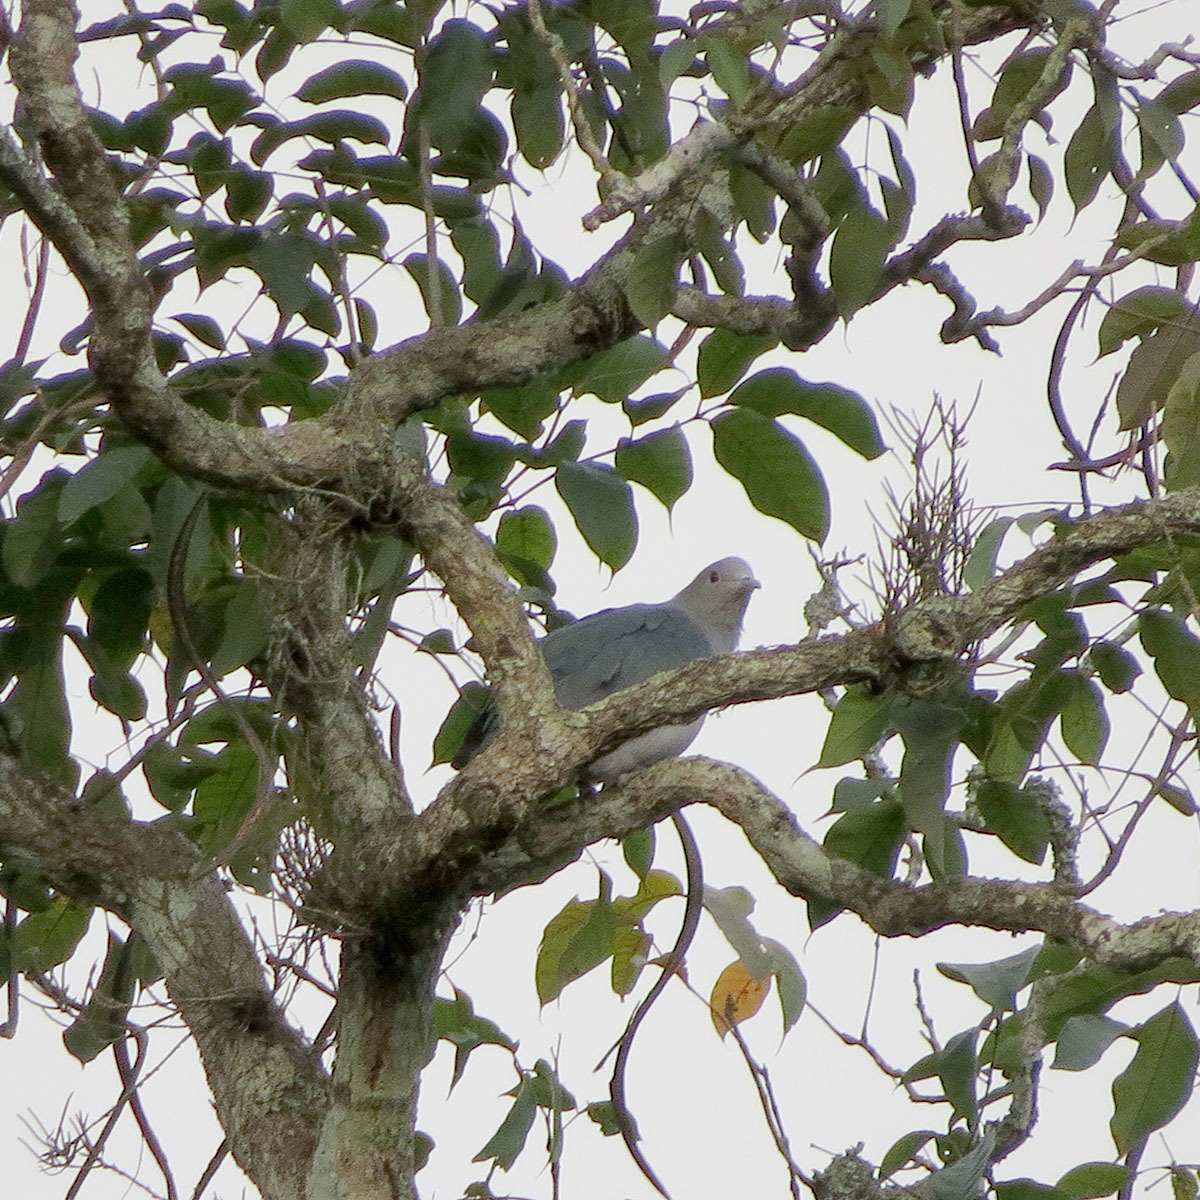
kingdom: Animalia
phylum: Chordata
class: Aves
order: Columbiformes
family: Columbidae
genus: Ducula
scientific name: Ducula aenea
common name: Green imperial pigeon
